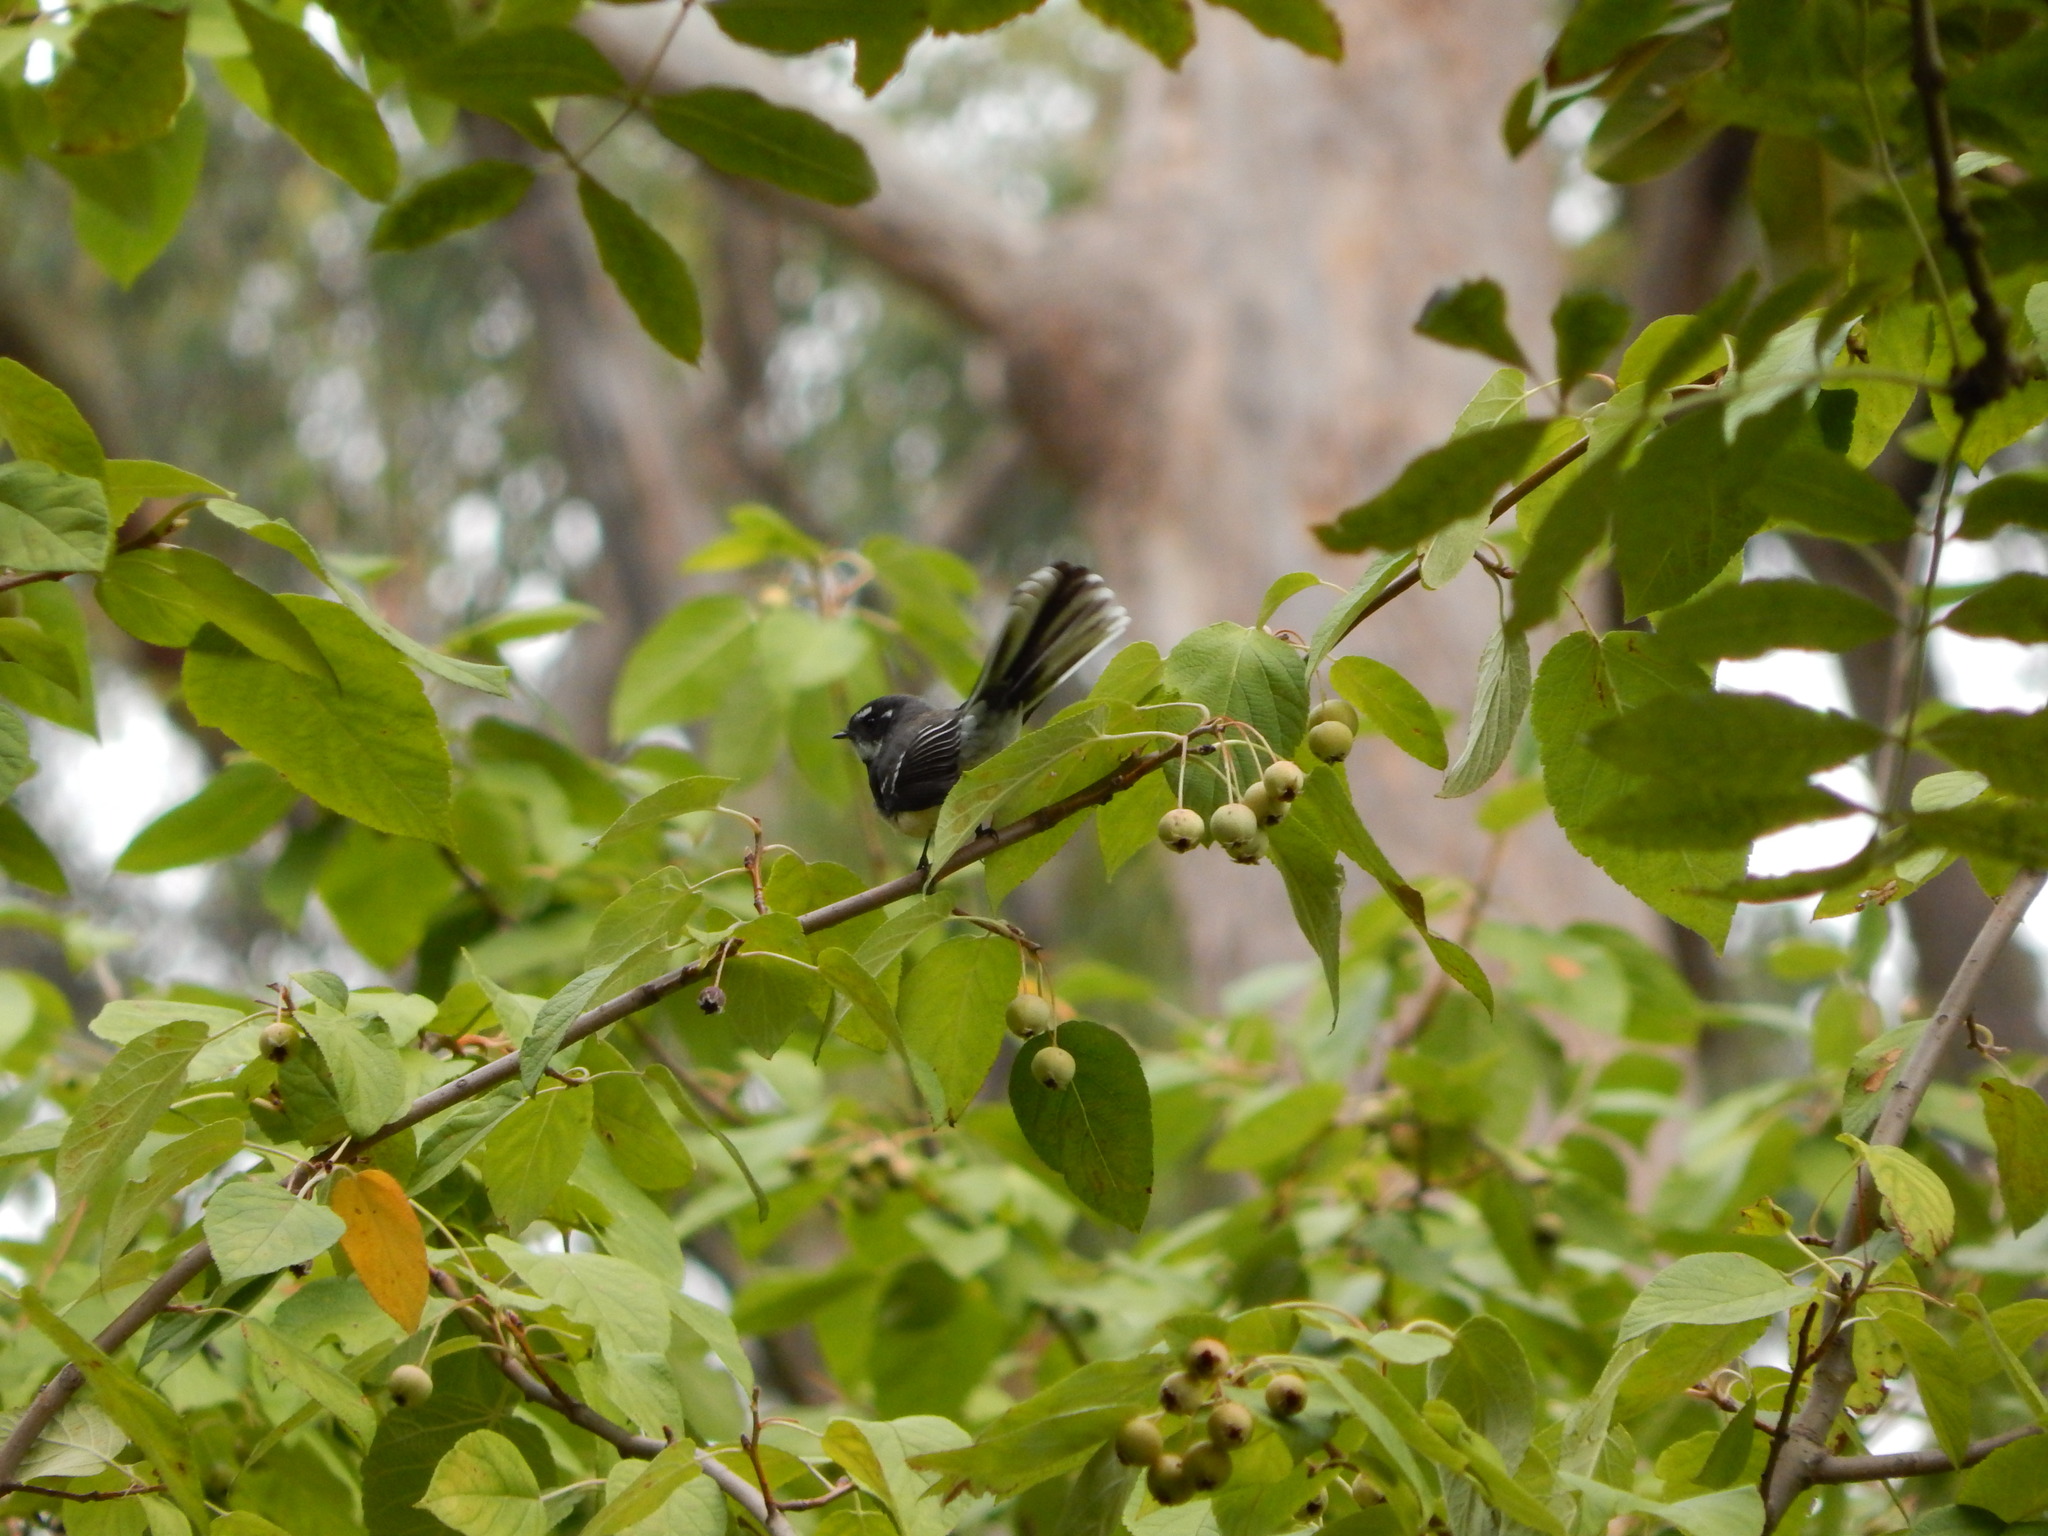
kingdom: Animalia
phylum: Chordata
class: Aves
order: Passeriformes
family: Rhipiduridae
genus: Rhipidura
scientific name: Rhipidura albiscapa
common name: Grey fantail
